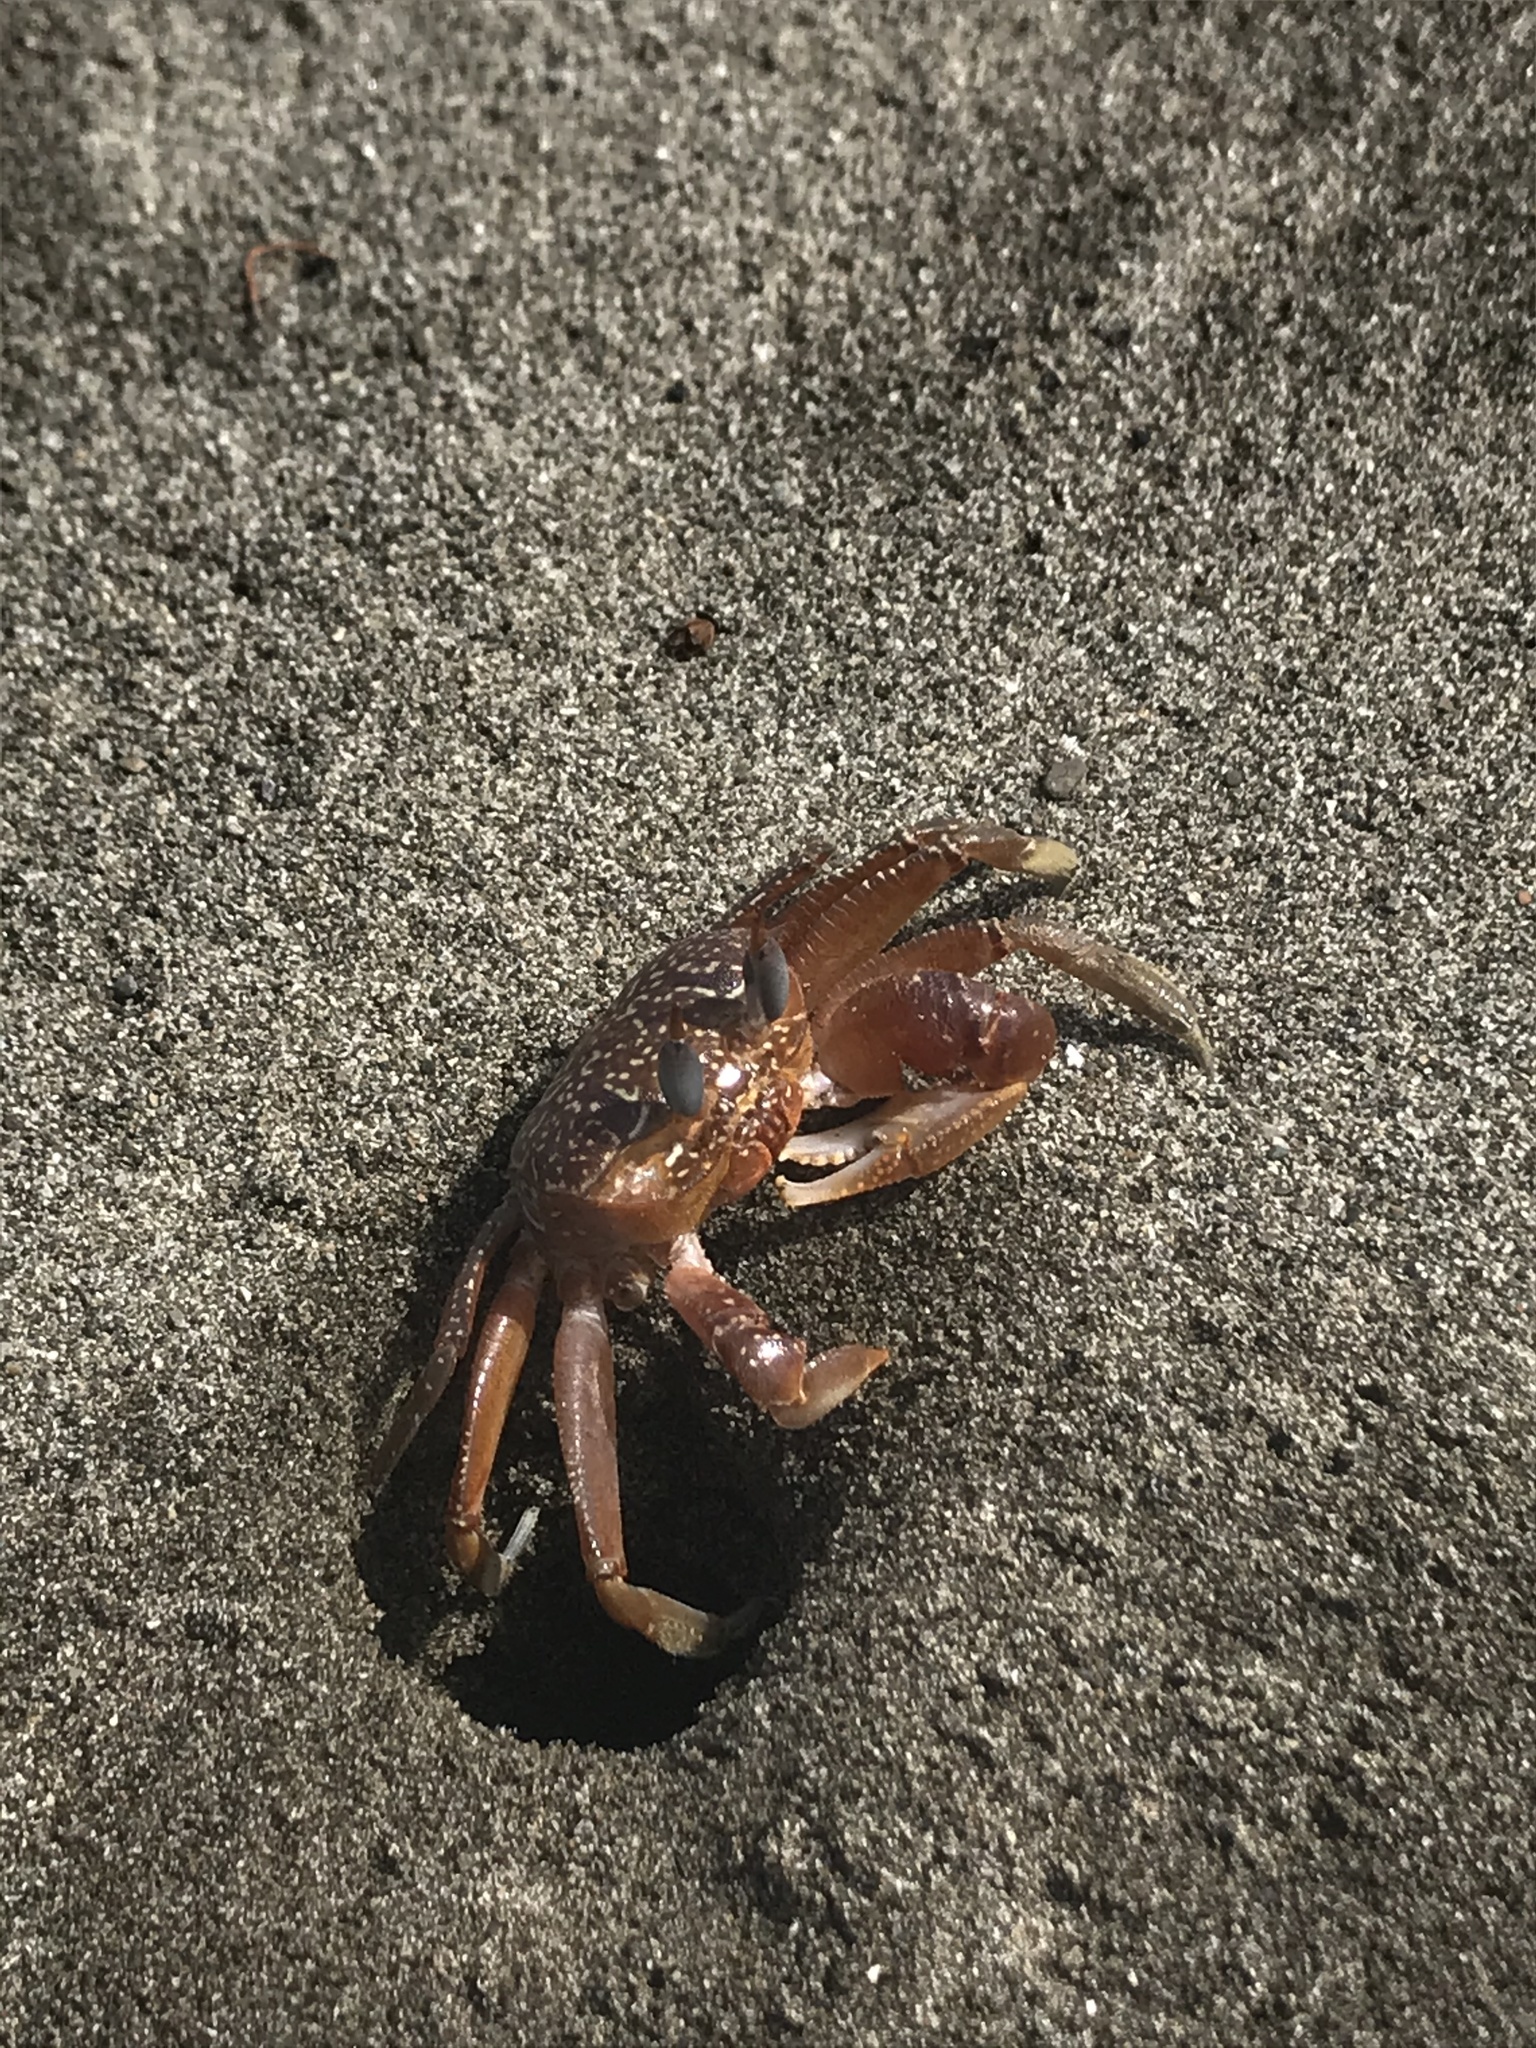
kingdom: Animalia
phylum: Arthropoda
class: Malacostraca
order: Decapoda
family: Ocypodidae
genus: Ocypode
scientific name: Ocypode gaudichaudii
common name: Pacific ghost crab
